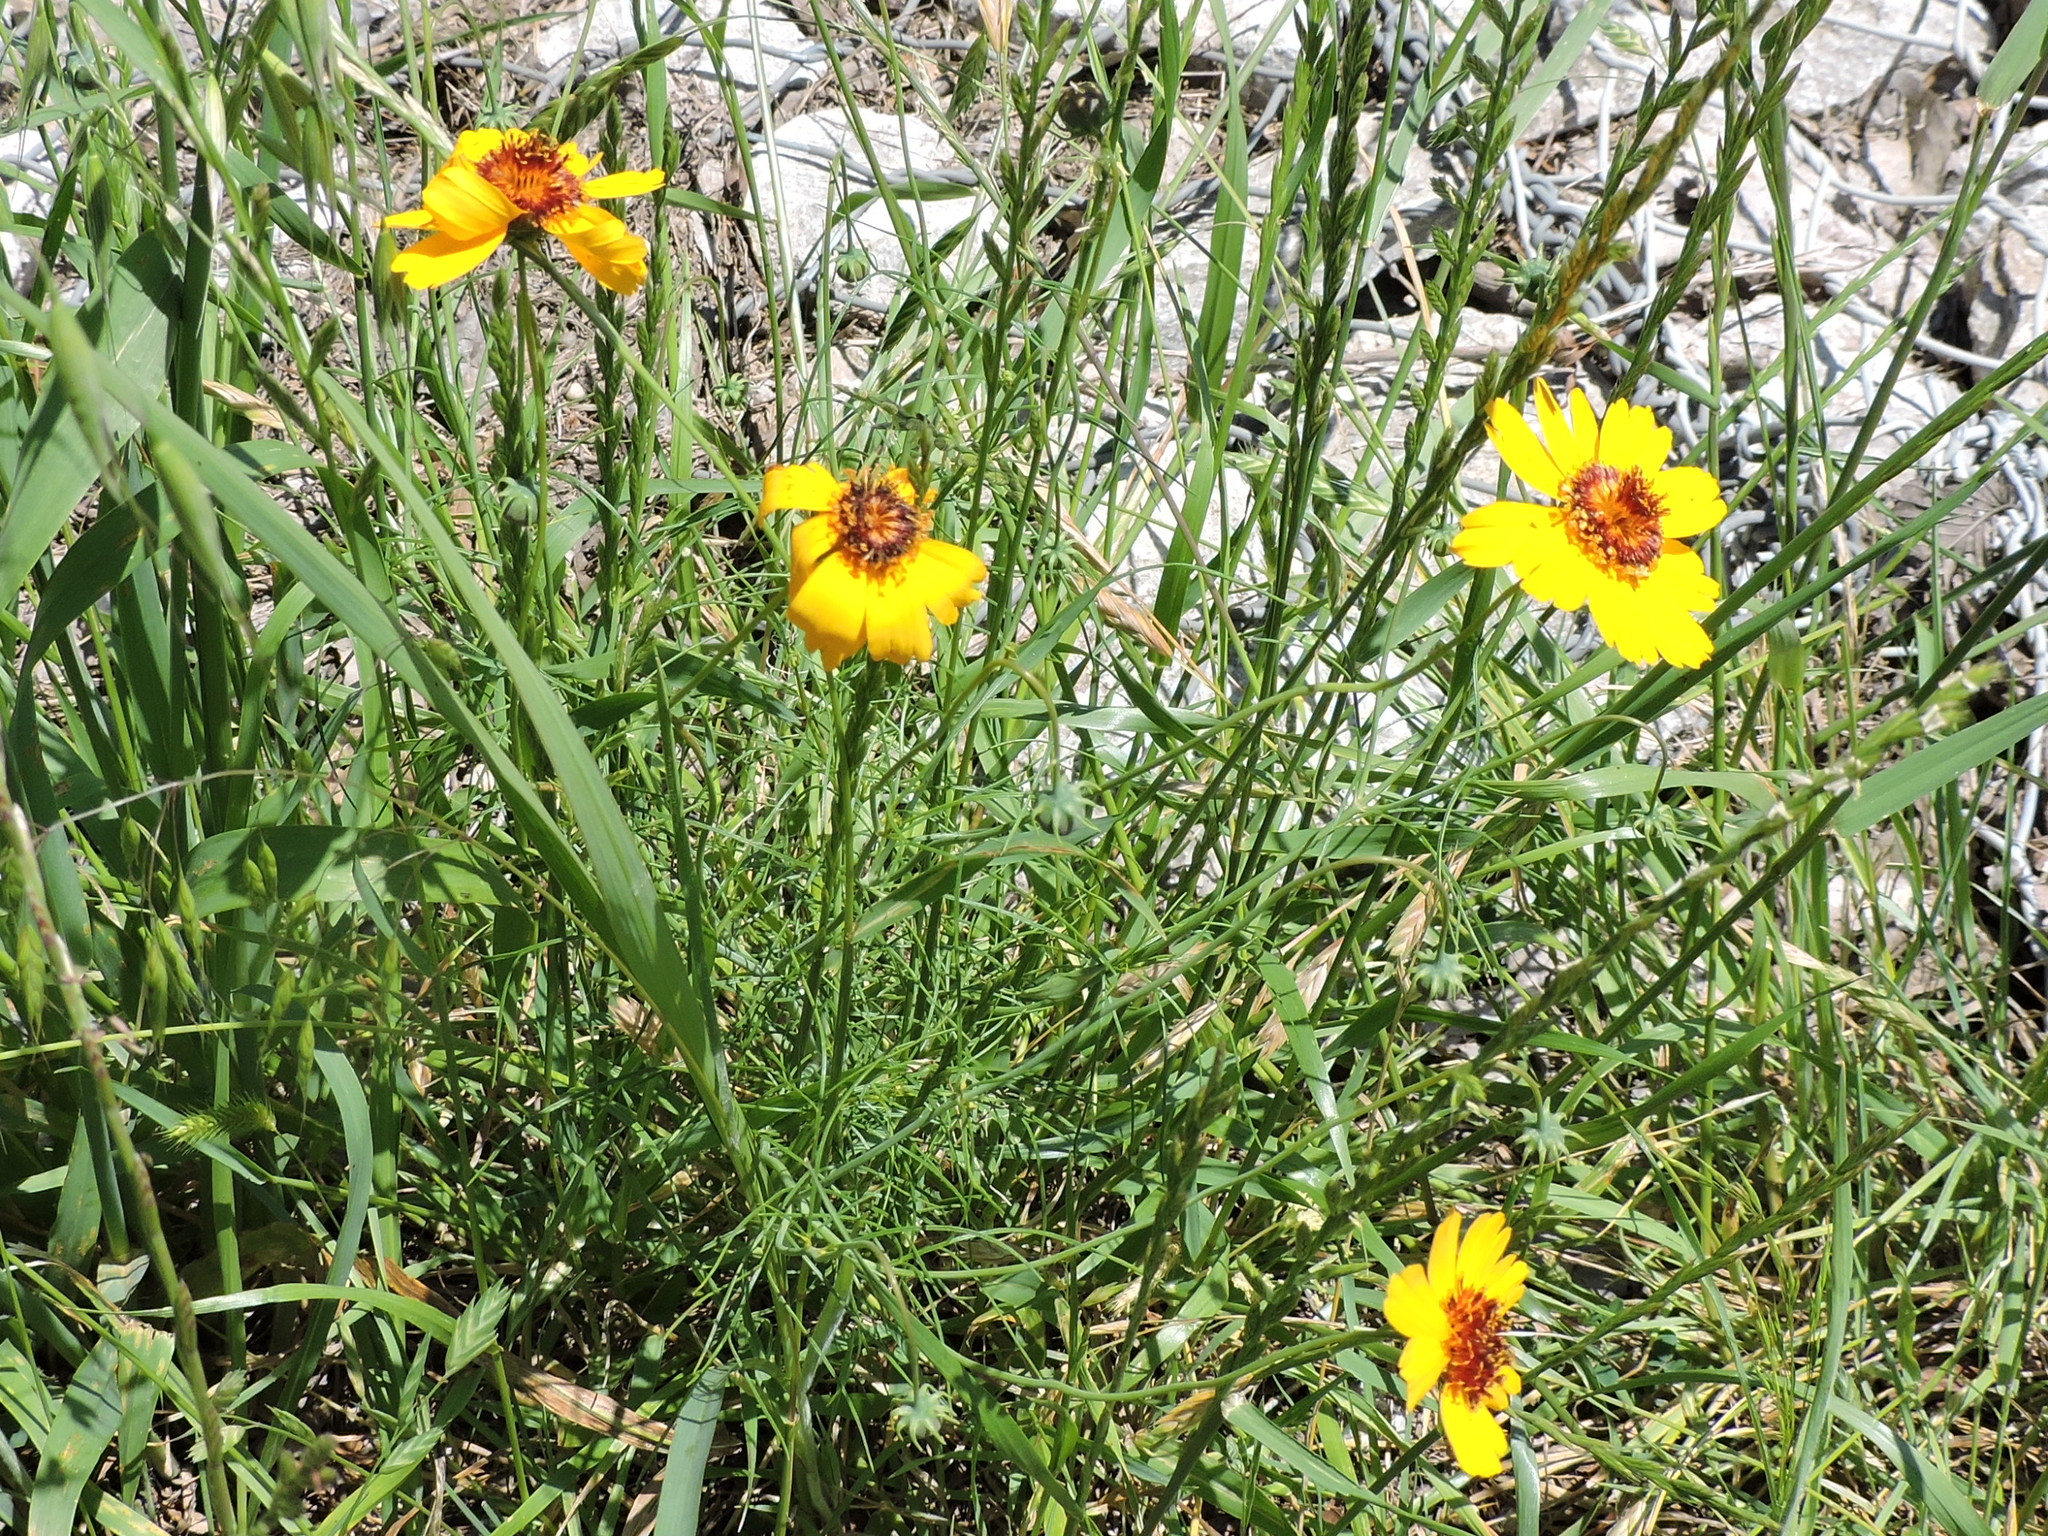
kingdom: Plantae
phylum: Tracheophyta
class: Magnoliopsida
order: Asterales
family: Asteraceae
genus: Thelesperma
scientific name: Thelesperma filifolium
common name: Stiff greenthread
